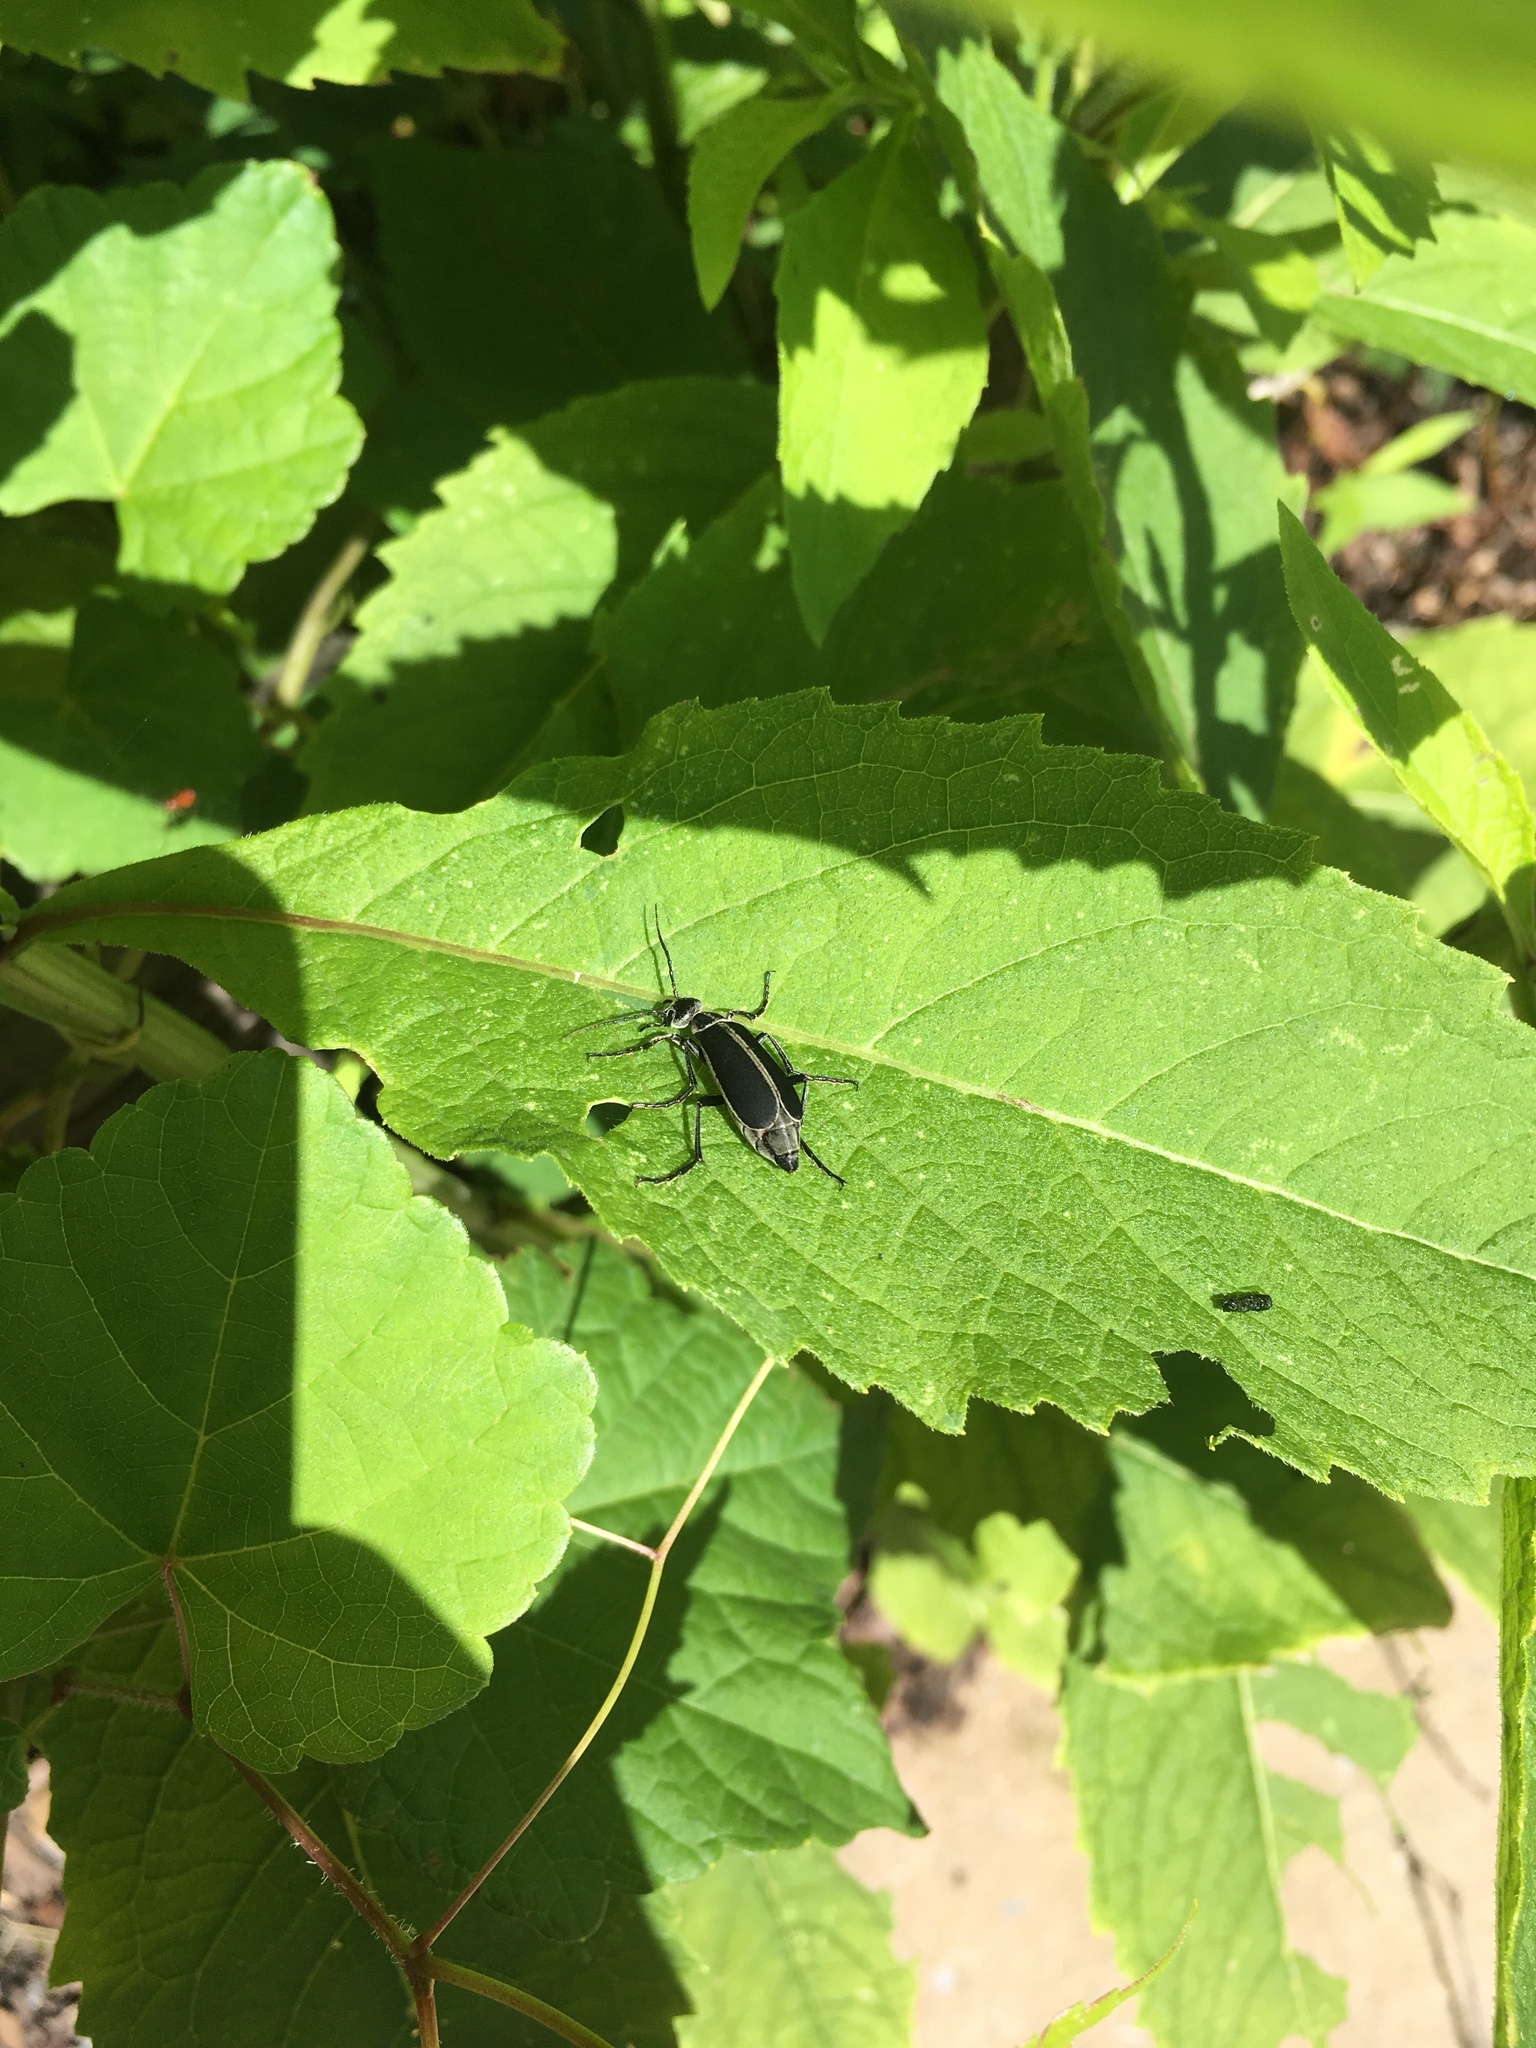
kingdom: Animalia
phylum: Arthropoda
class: Insecta
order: Coleoptera
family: Meloidae
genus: Epicauta
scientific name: Epicauta funebris
